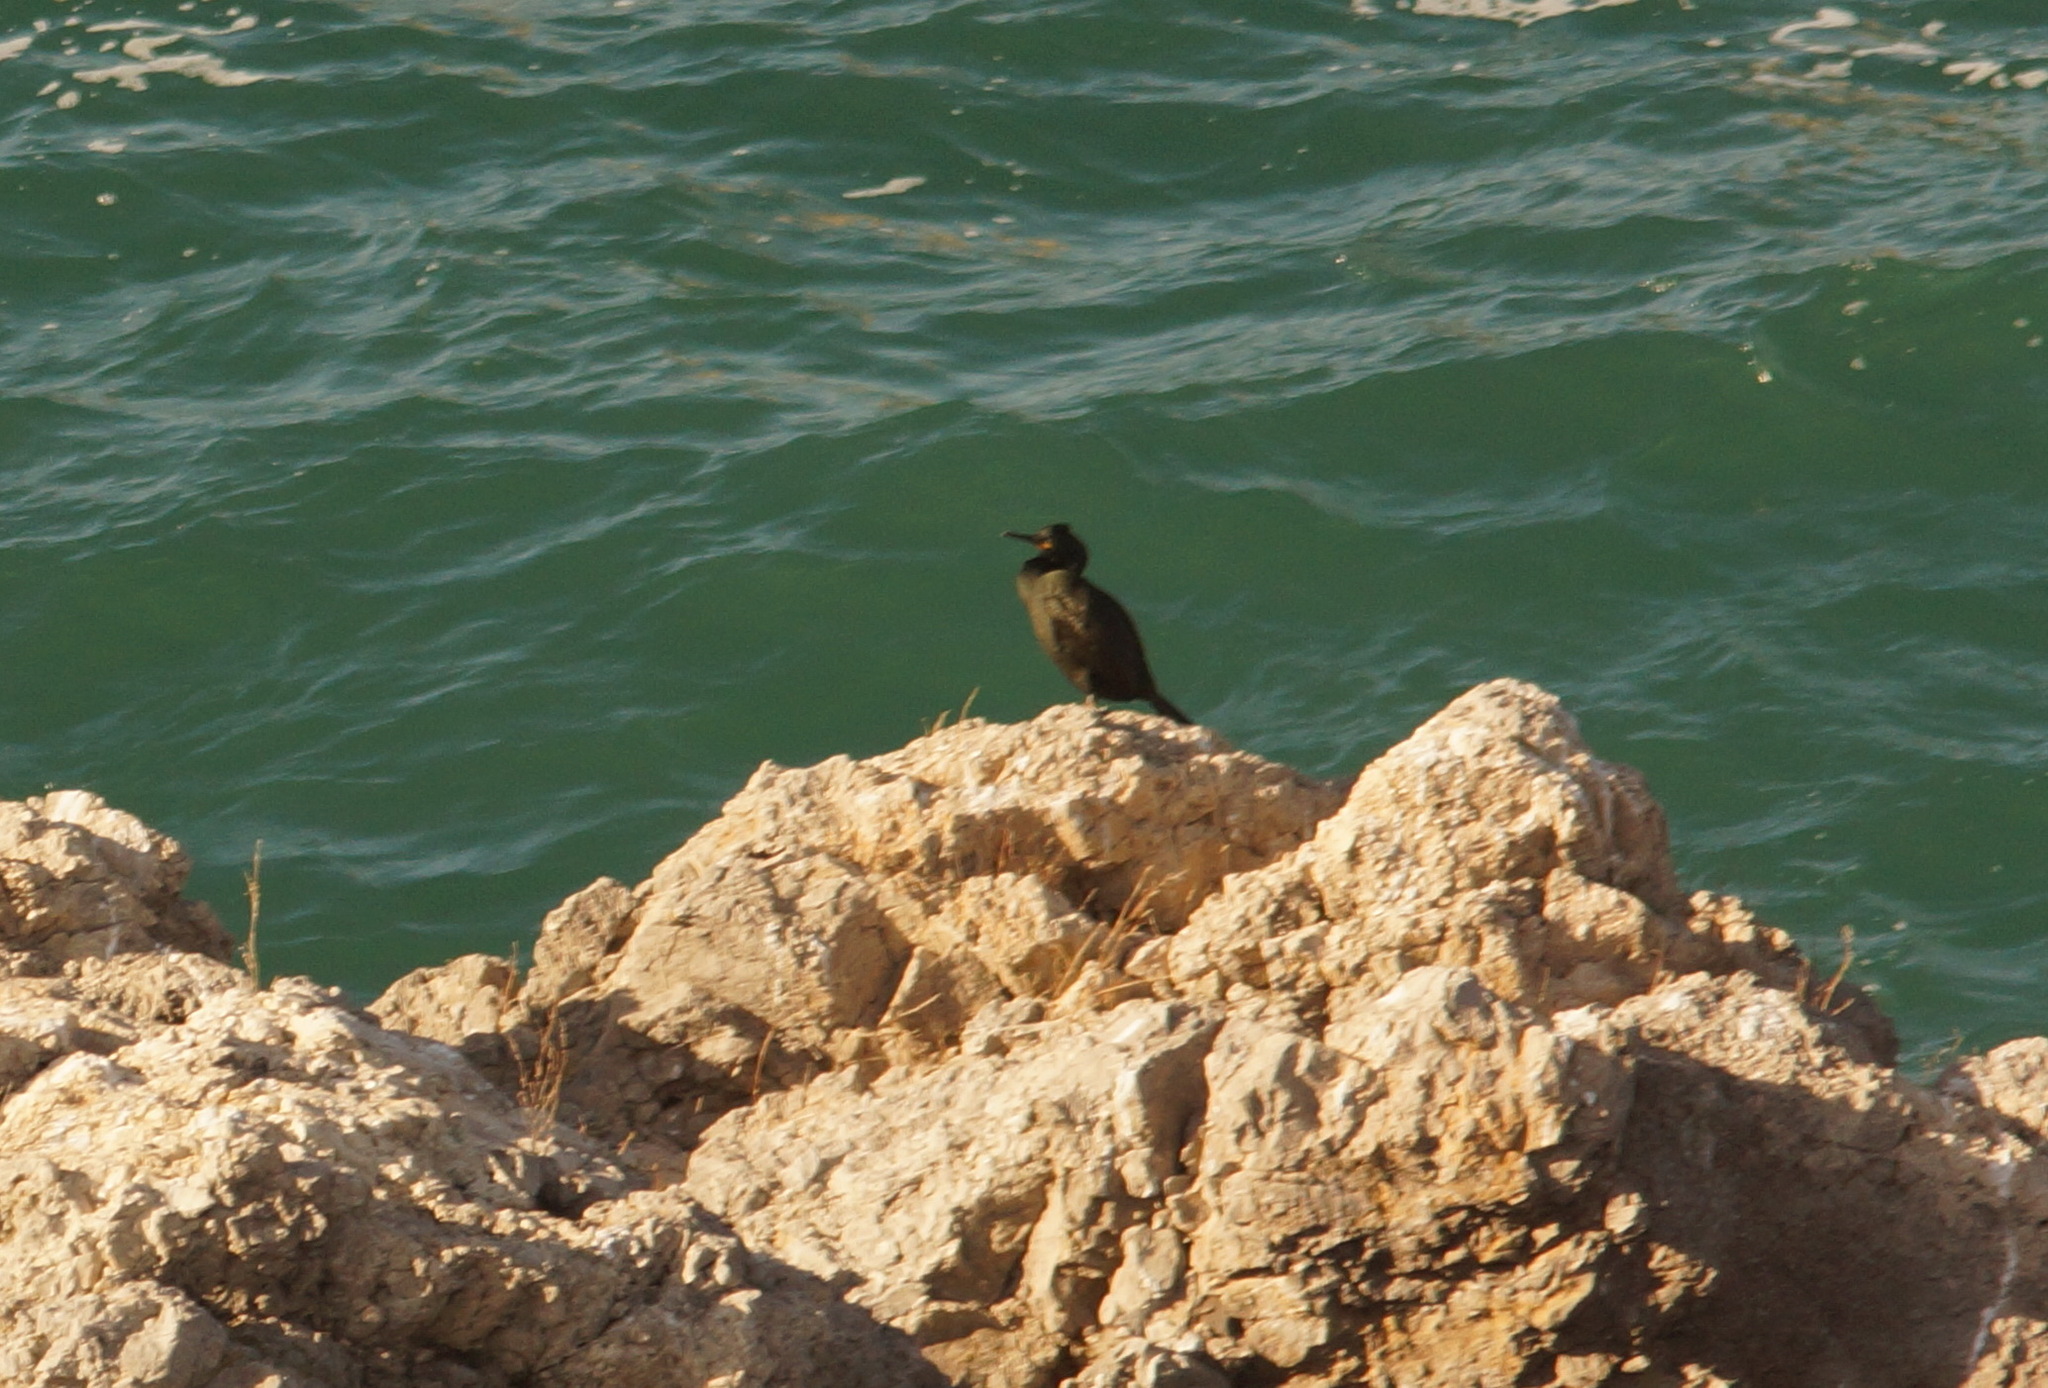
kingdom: Animalia
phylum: Chordata
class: Aves
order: Suliformes
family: Phalacrocoracidae
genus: Phalacrocorax
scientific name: Phalacrocorax aristotelis
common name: European shag
